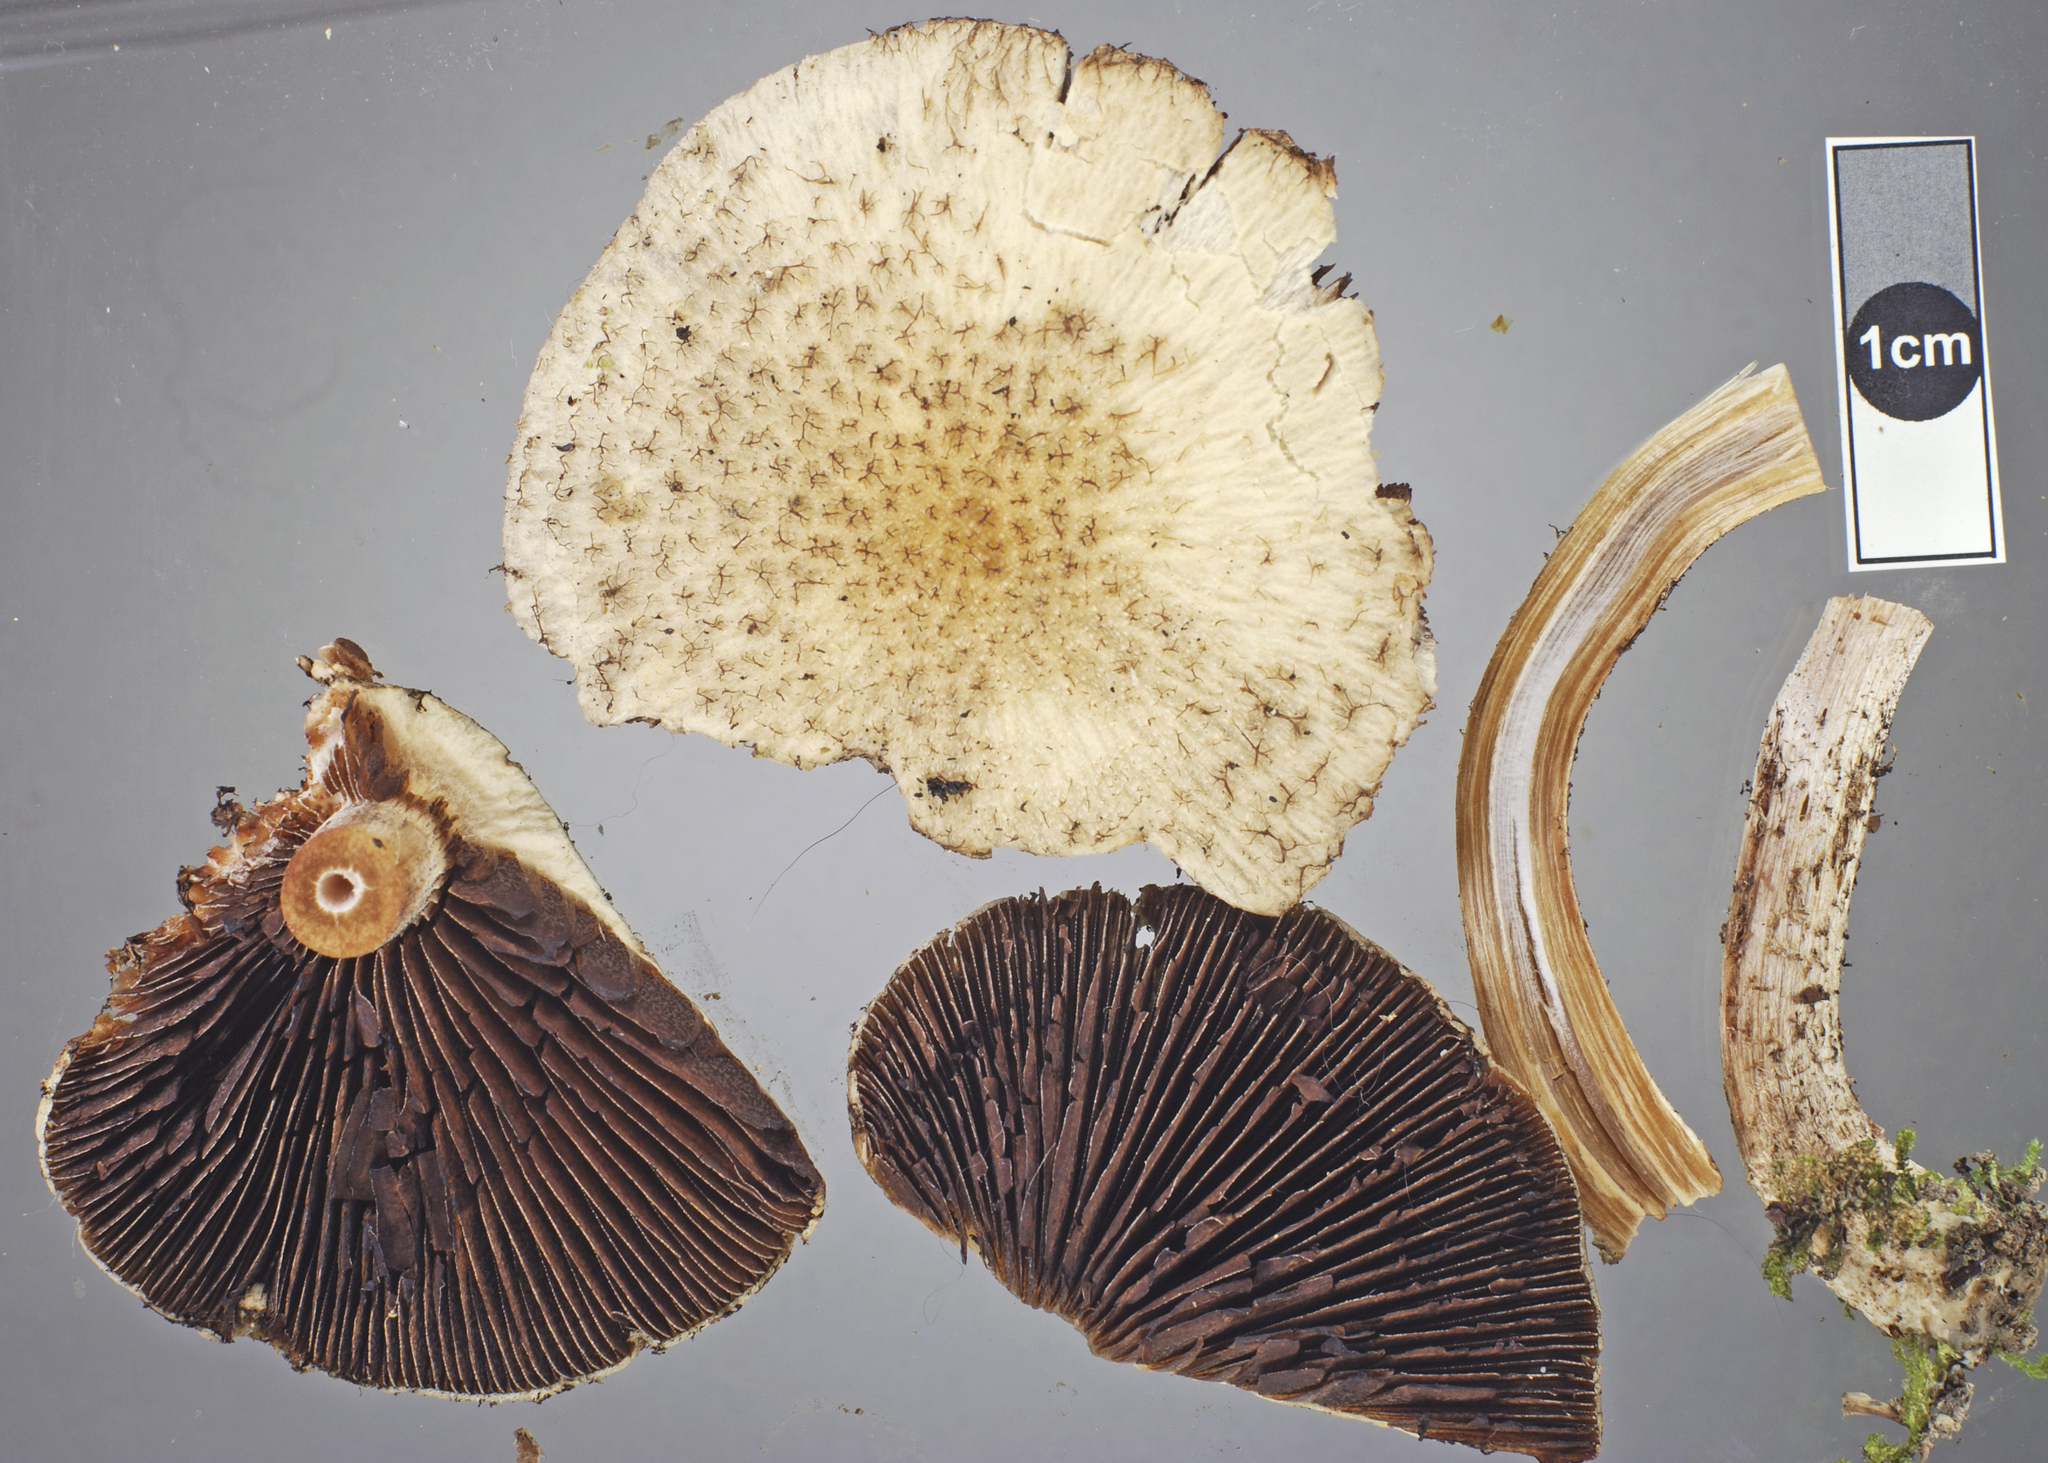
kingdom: Fungi
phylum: Basidiomycota
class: Agaricomycetes
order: Agaricales
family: Psathyrellaceae
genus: Psathyrella
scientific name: Psathyrella asperospora
